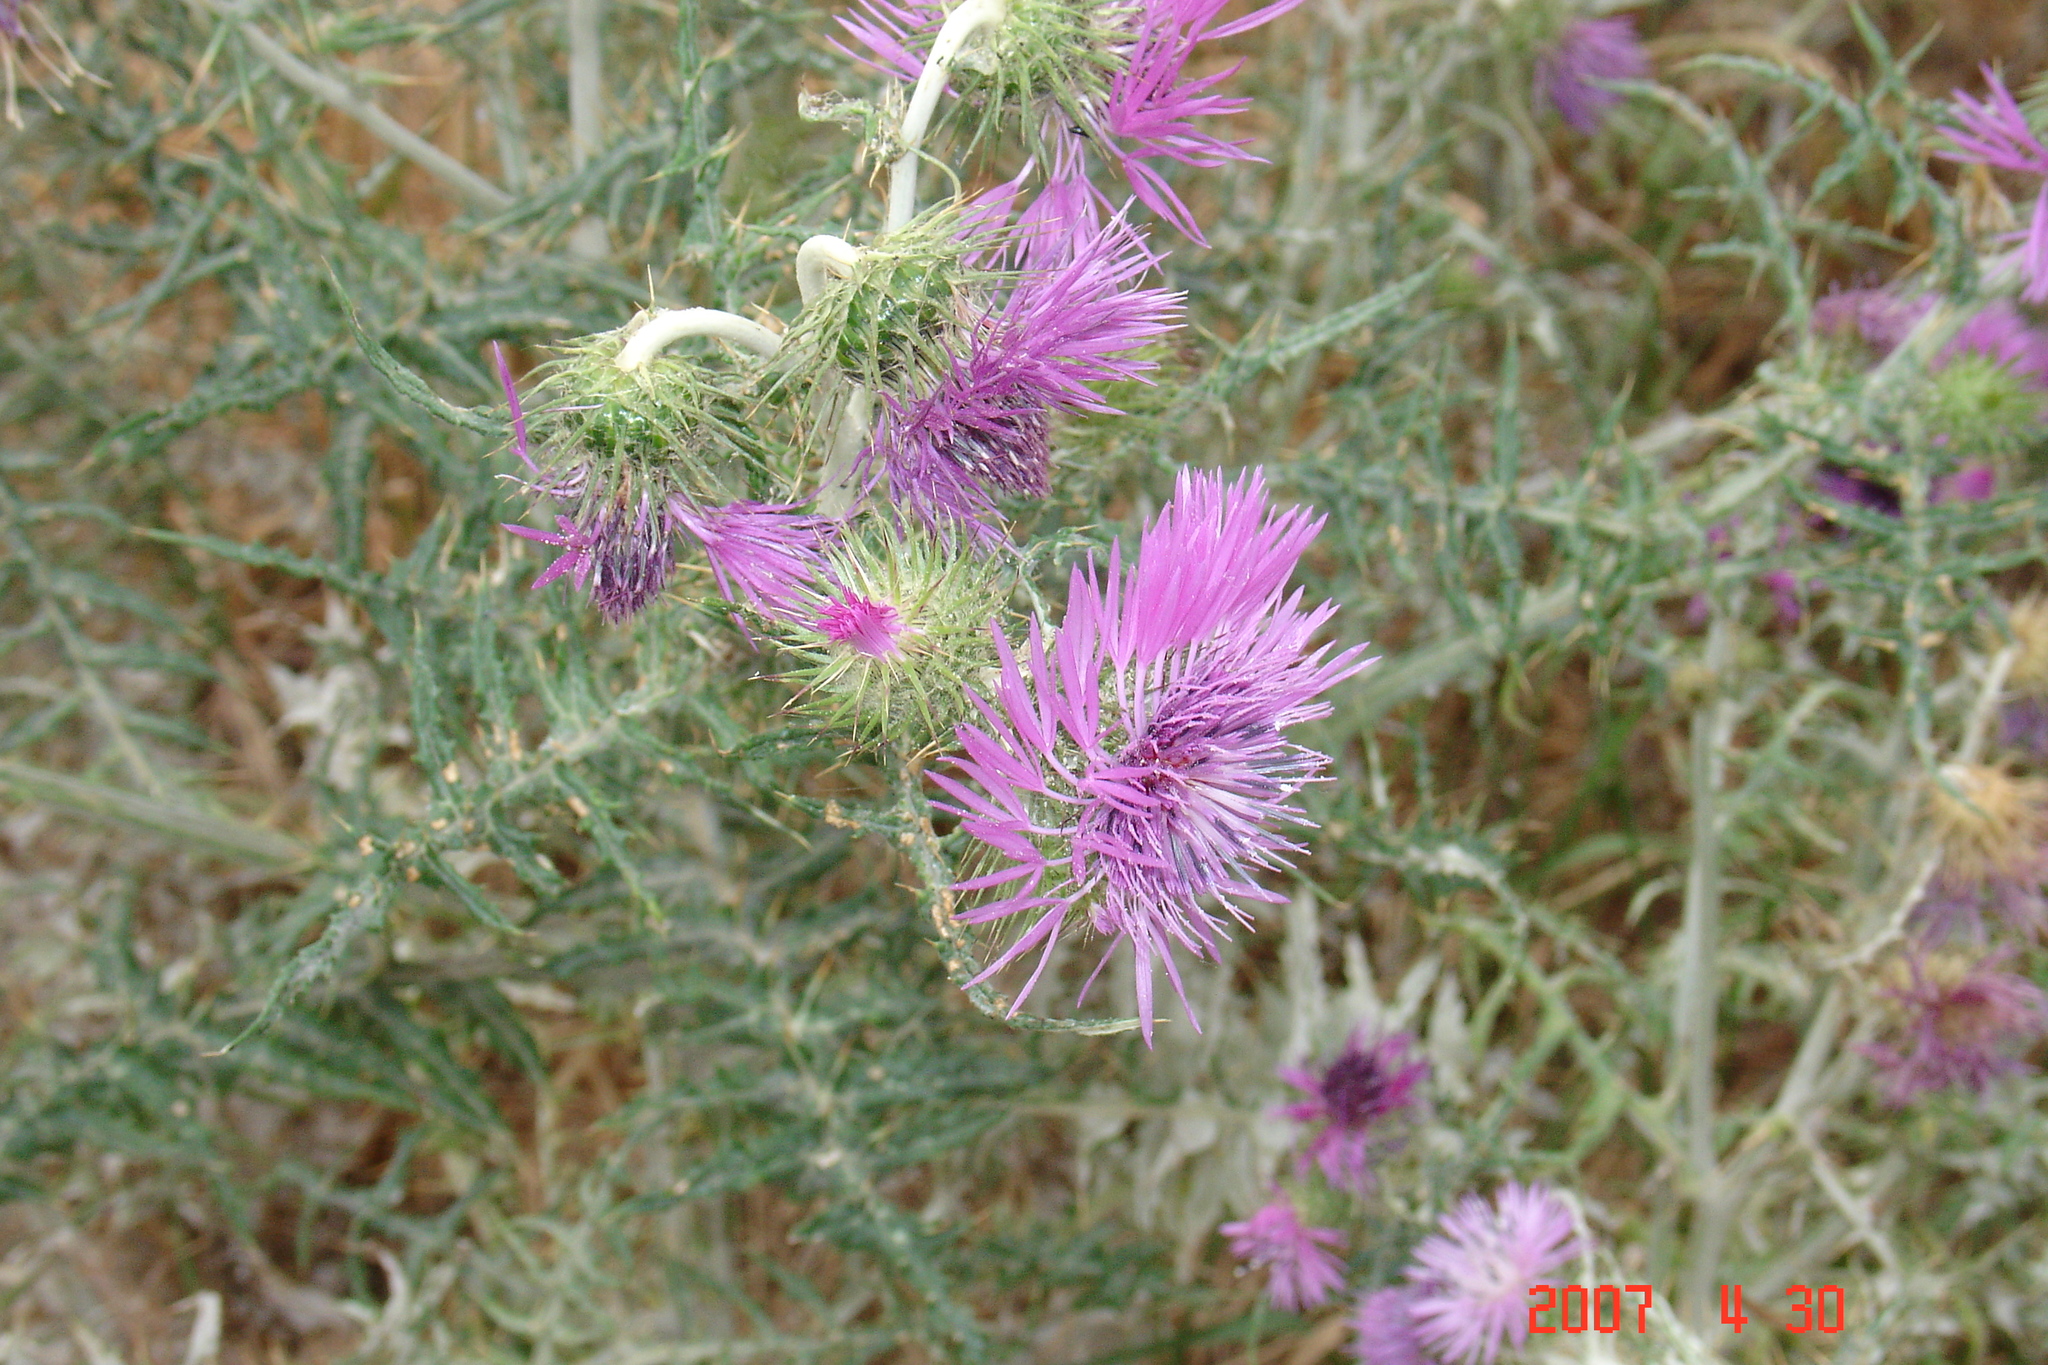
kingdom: Plantae
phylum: Tracheophyta
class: Magnoliopsida
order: Asterales
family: Asteraceae
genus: Galactites
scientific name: Galactites tomentosa
